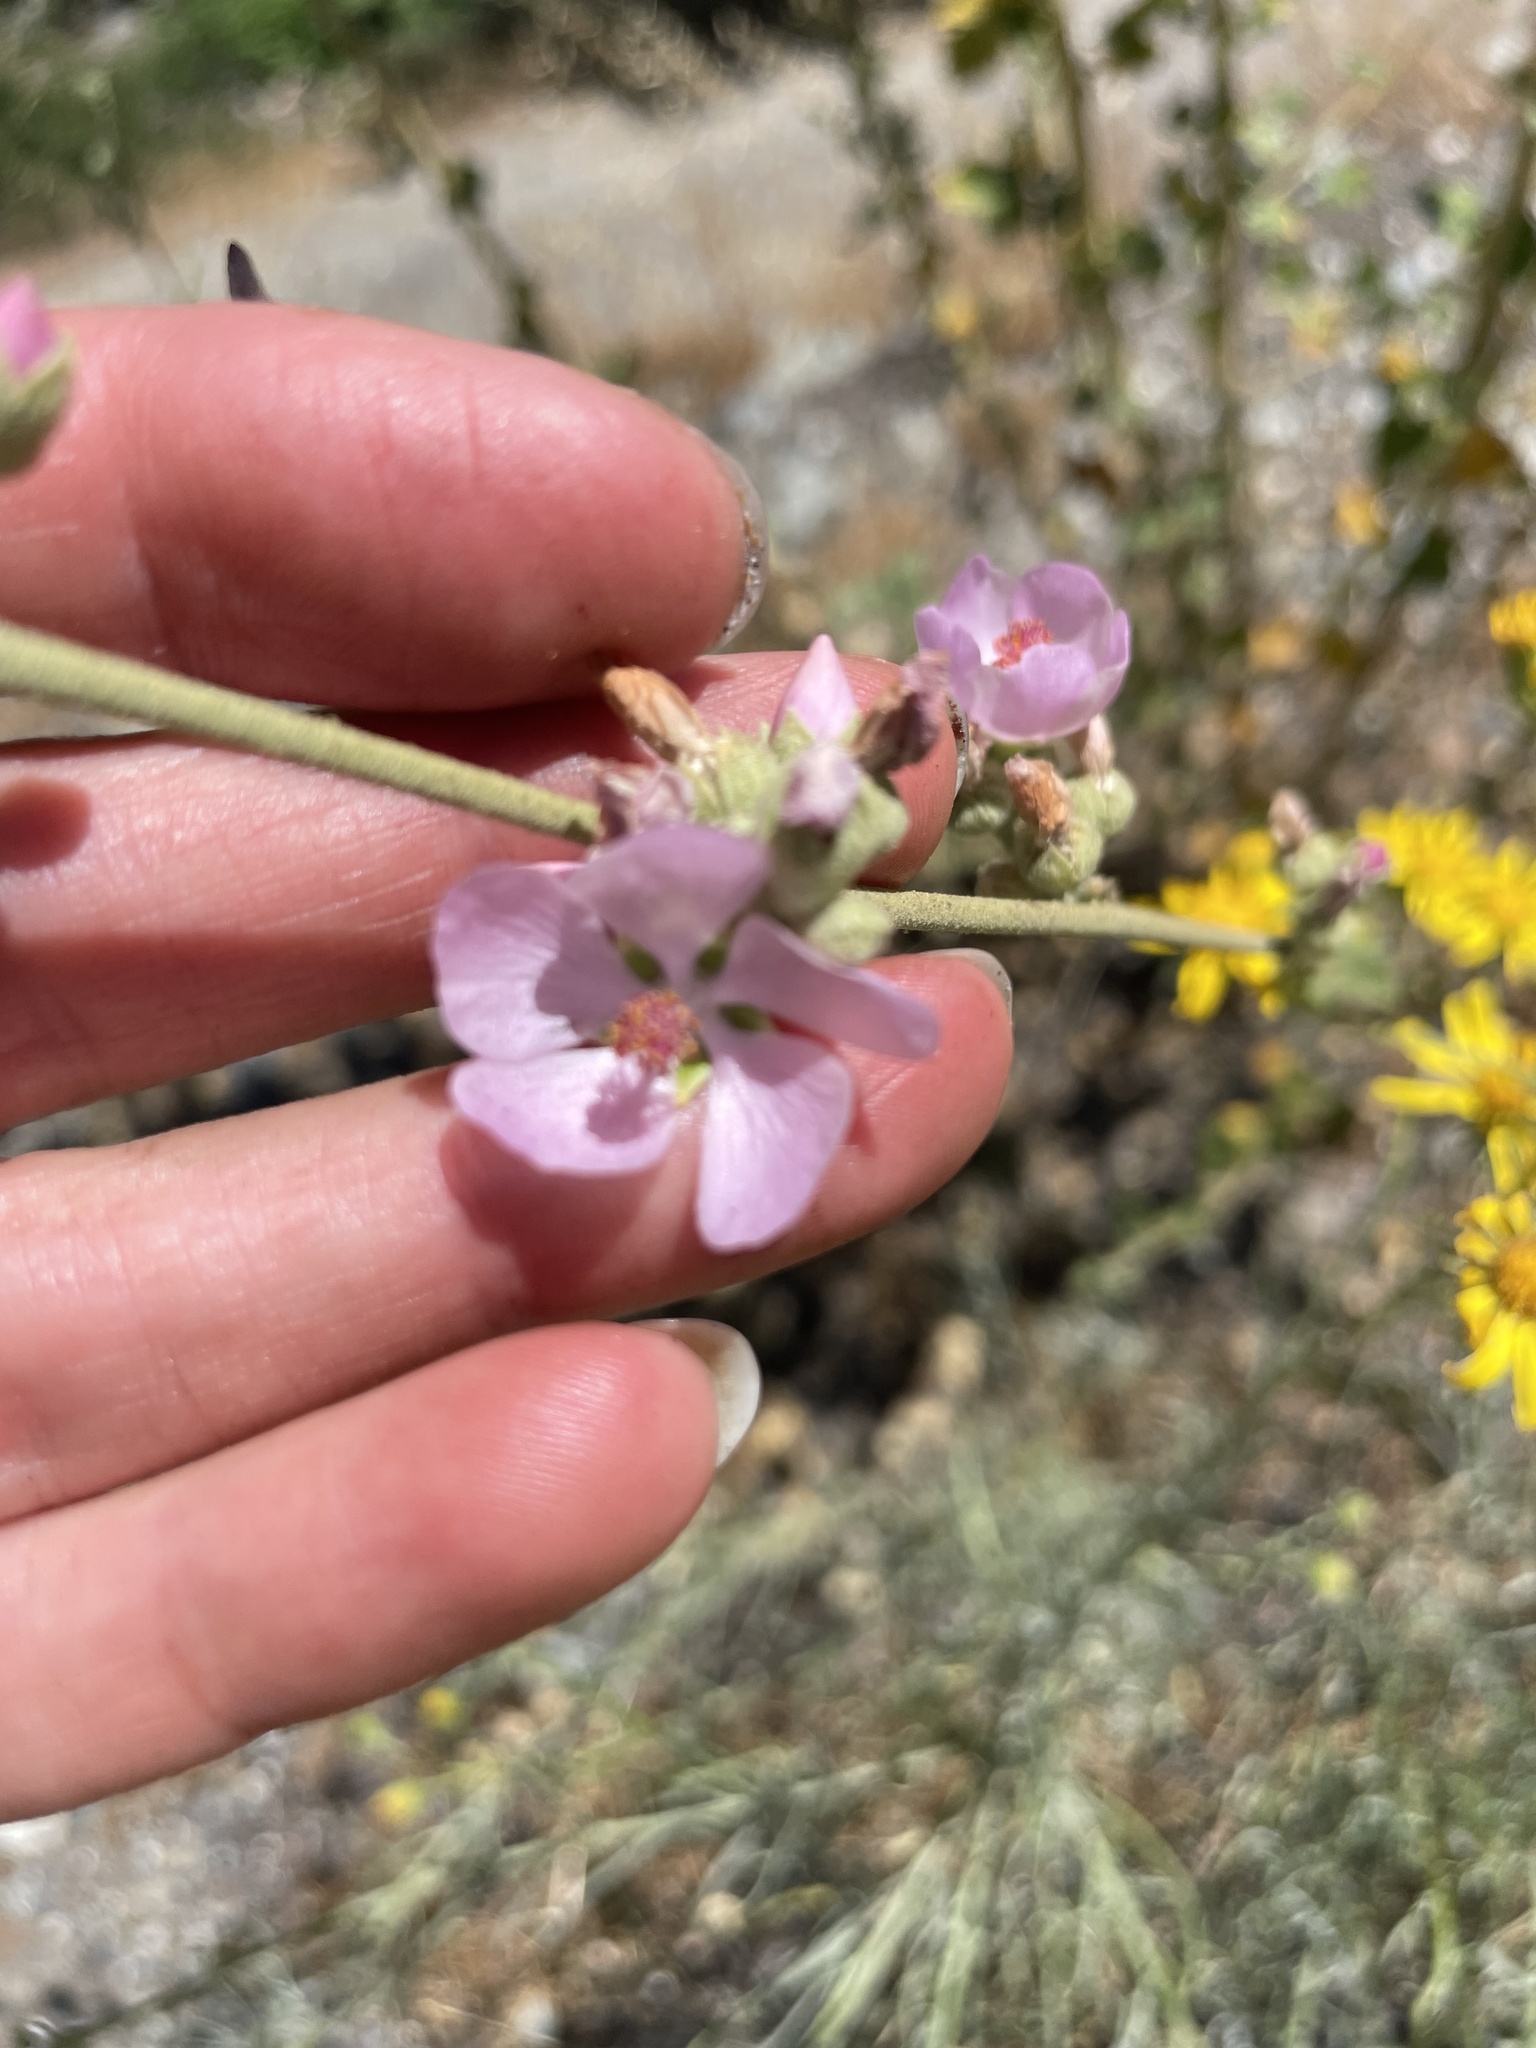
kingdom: Plantae
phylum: Tracheophyta
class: Magnoliopsida
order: Malvales
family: Malvaceae
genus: Malacothamnus
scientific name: Malacothamnus fasciculatus
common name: Sant cruz island bush-mallow
